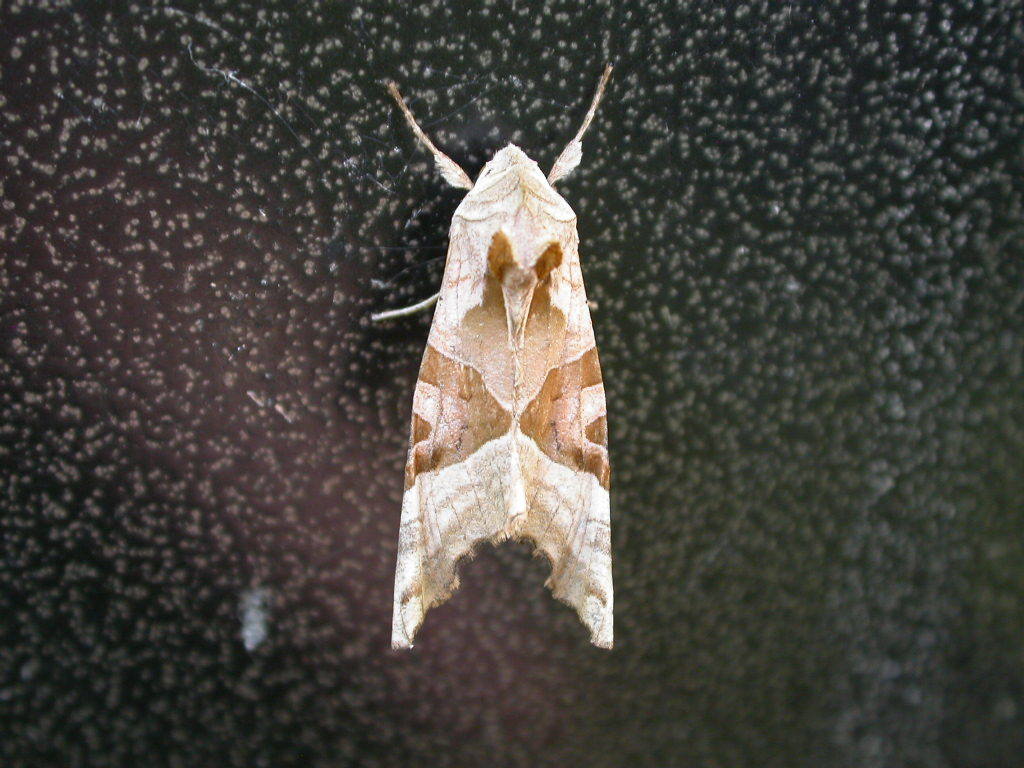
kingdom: Animalia
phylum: Arthropoda
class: Insecta
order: Lepidoptera
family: Noctuidae
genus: Phlogophora
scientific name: Phlogophora meticulosa
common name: Angle shades
